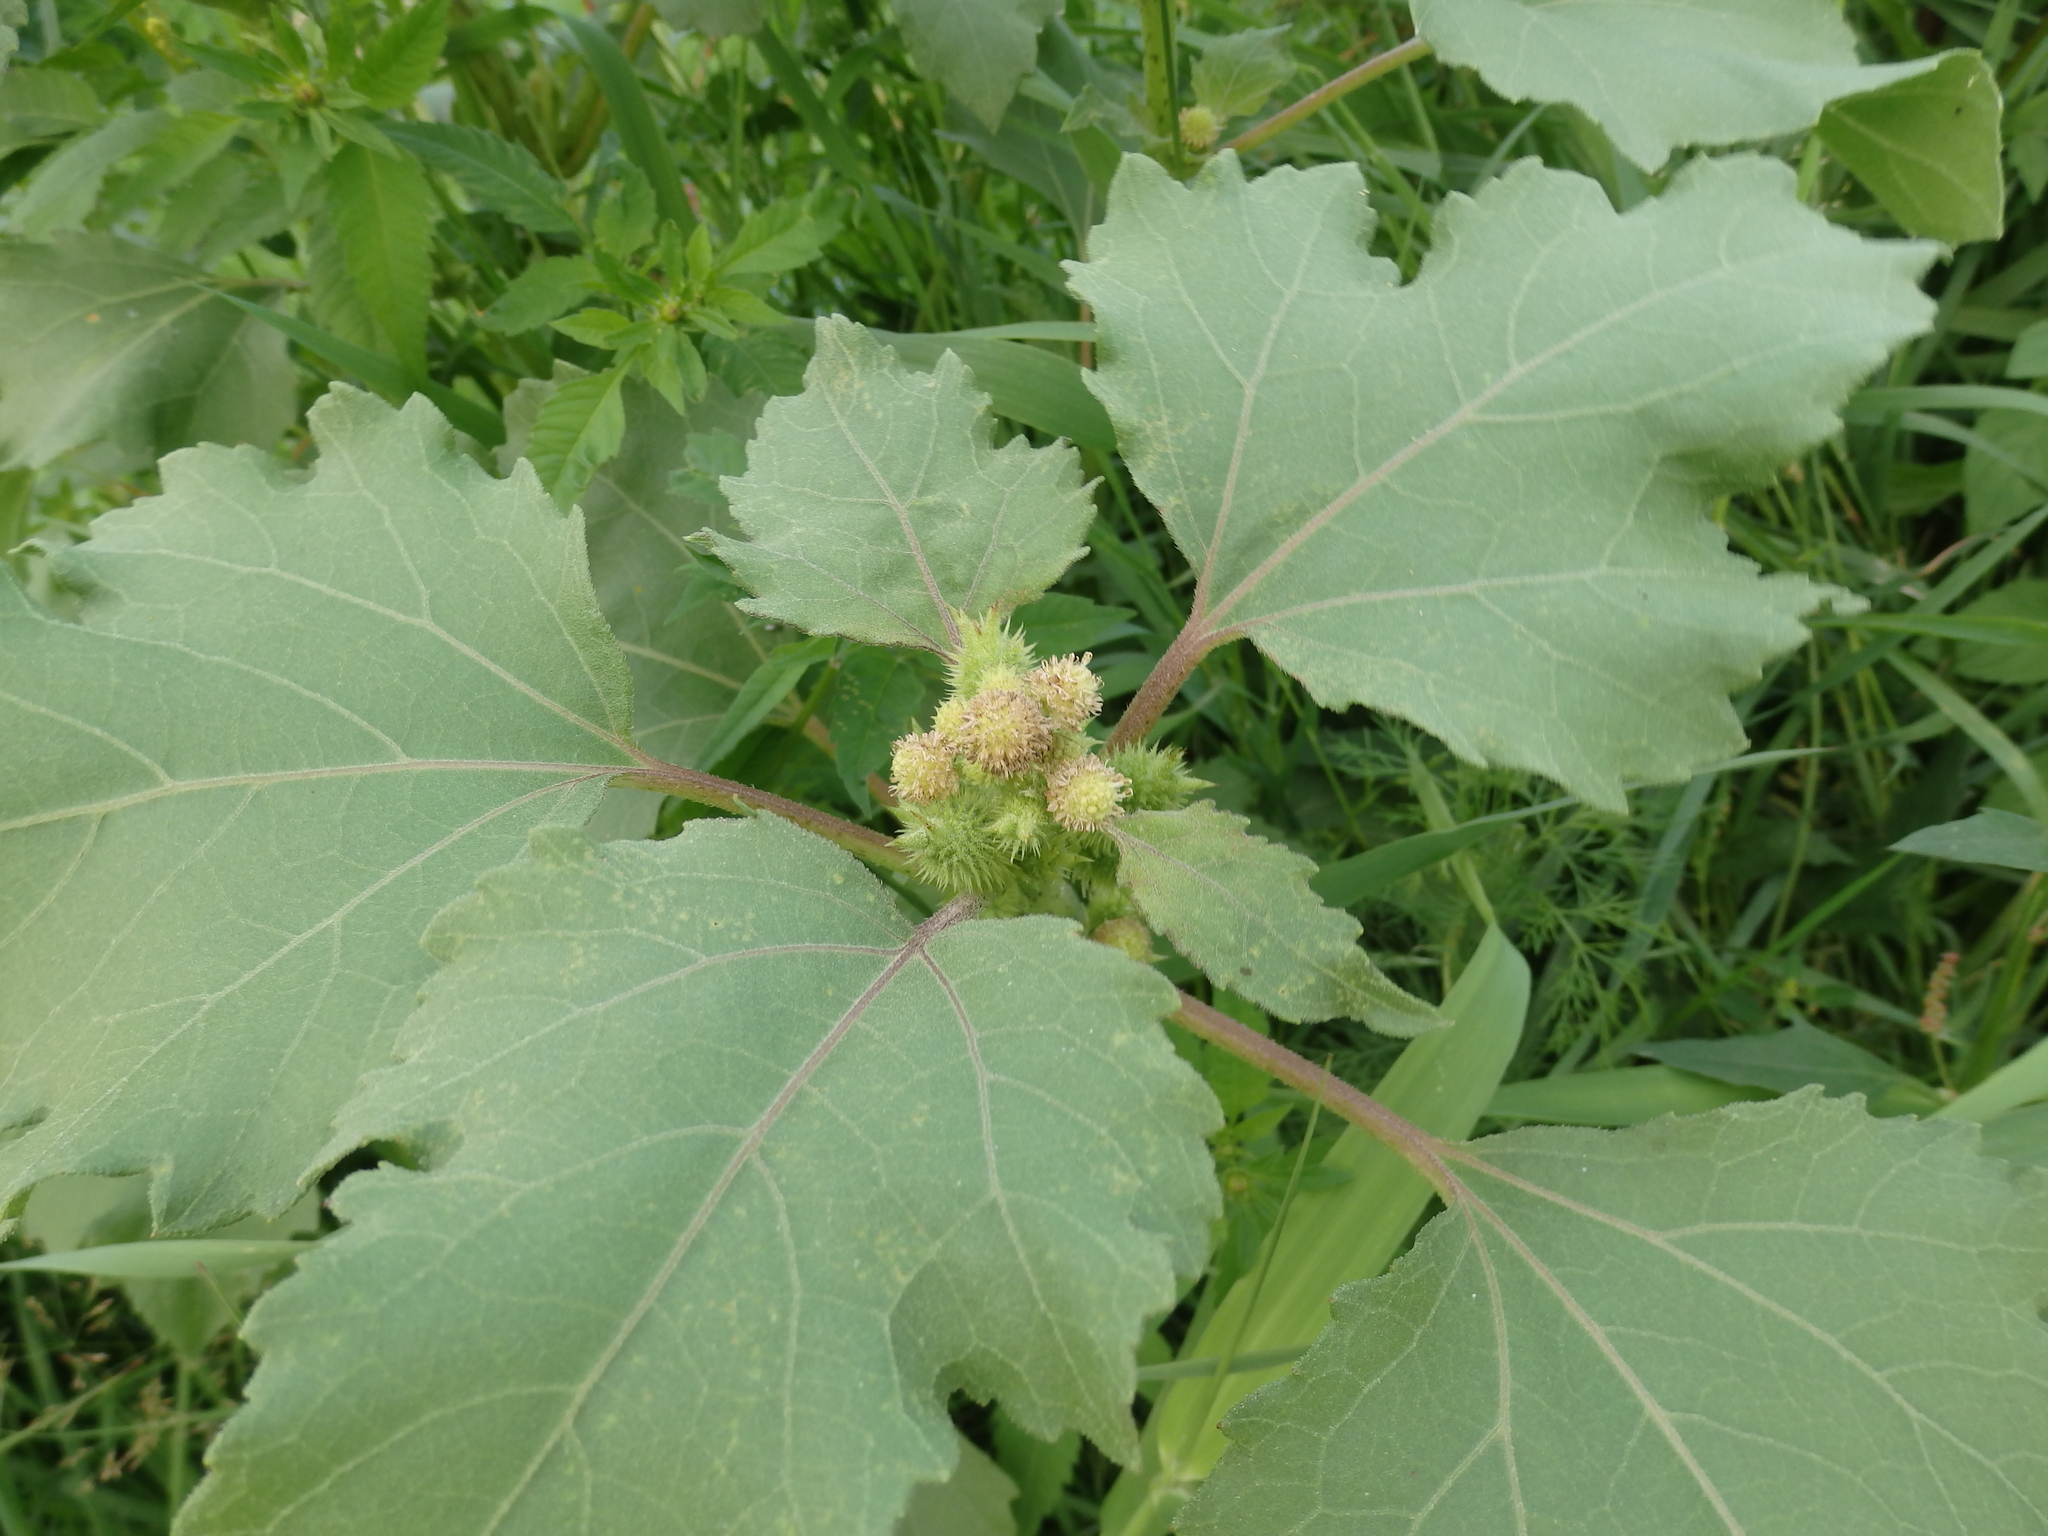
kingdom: Plantae
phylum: Tracheophyta
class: Magnoliopsida
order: Asterales
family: Asteraceae
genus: Xanthium
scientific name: Xanthium orientale
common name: Californian burr
